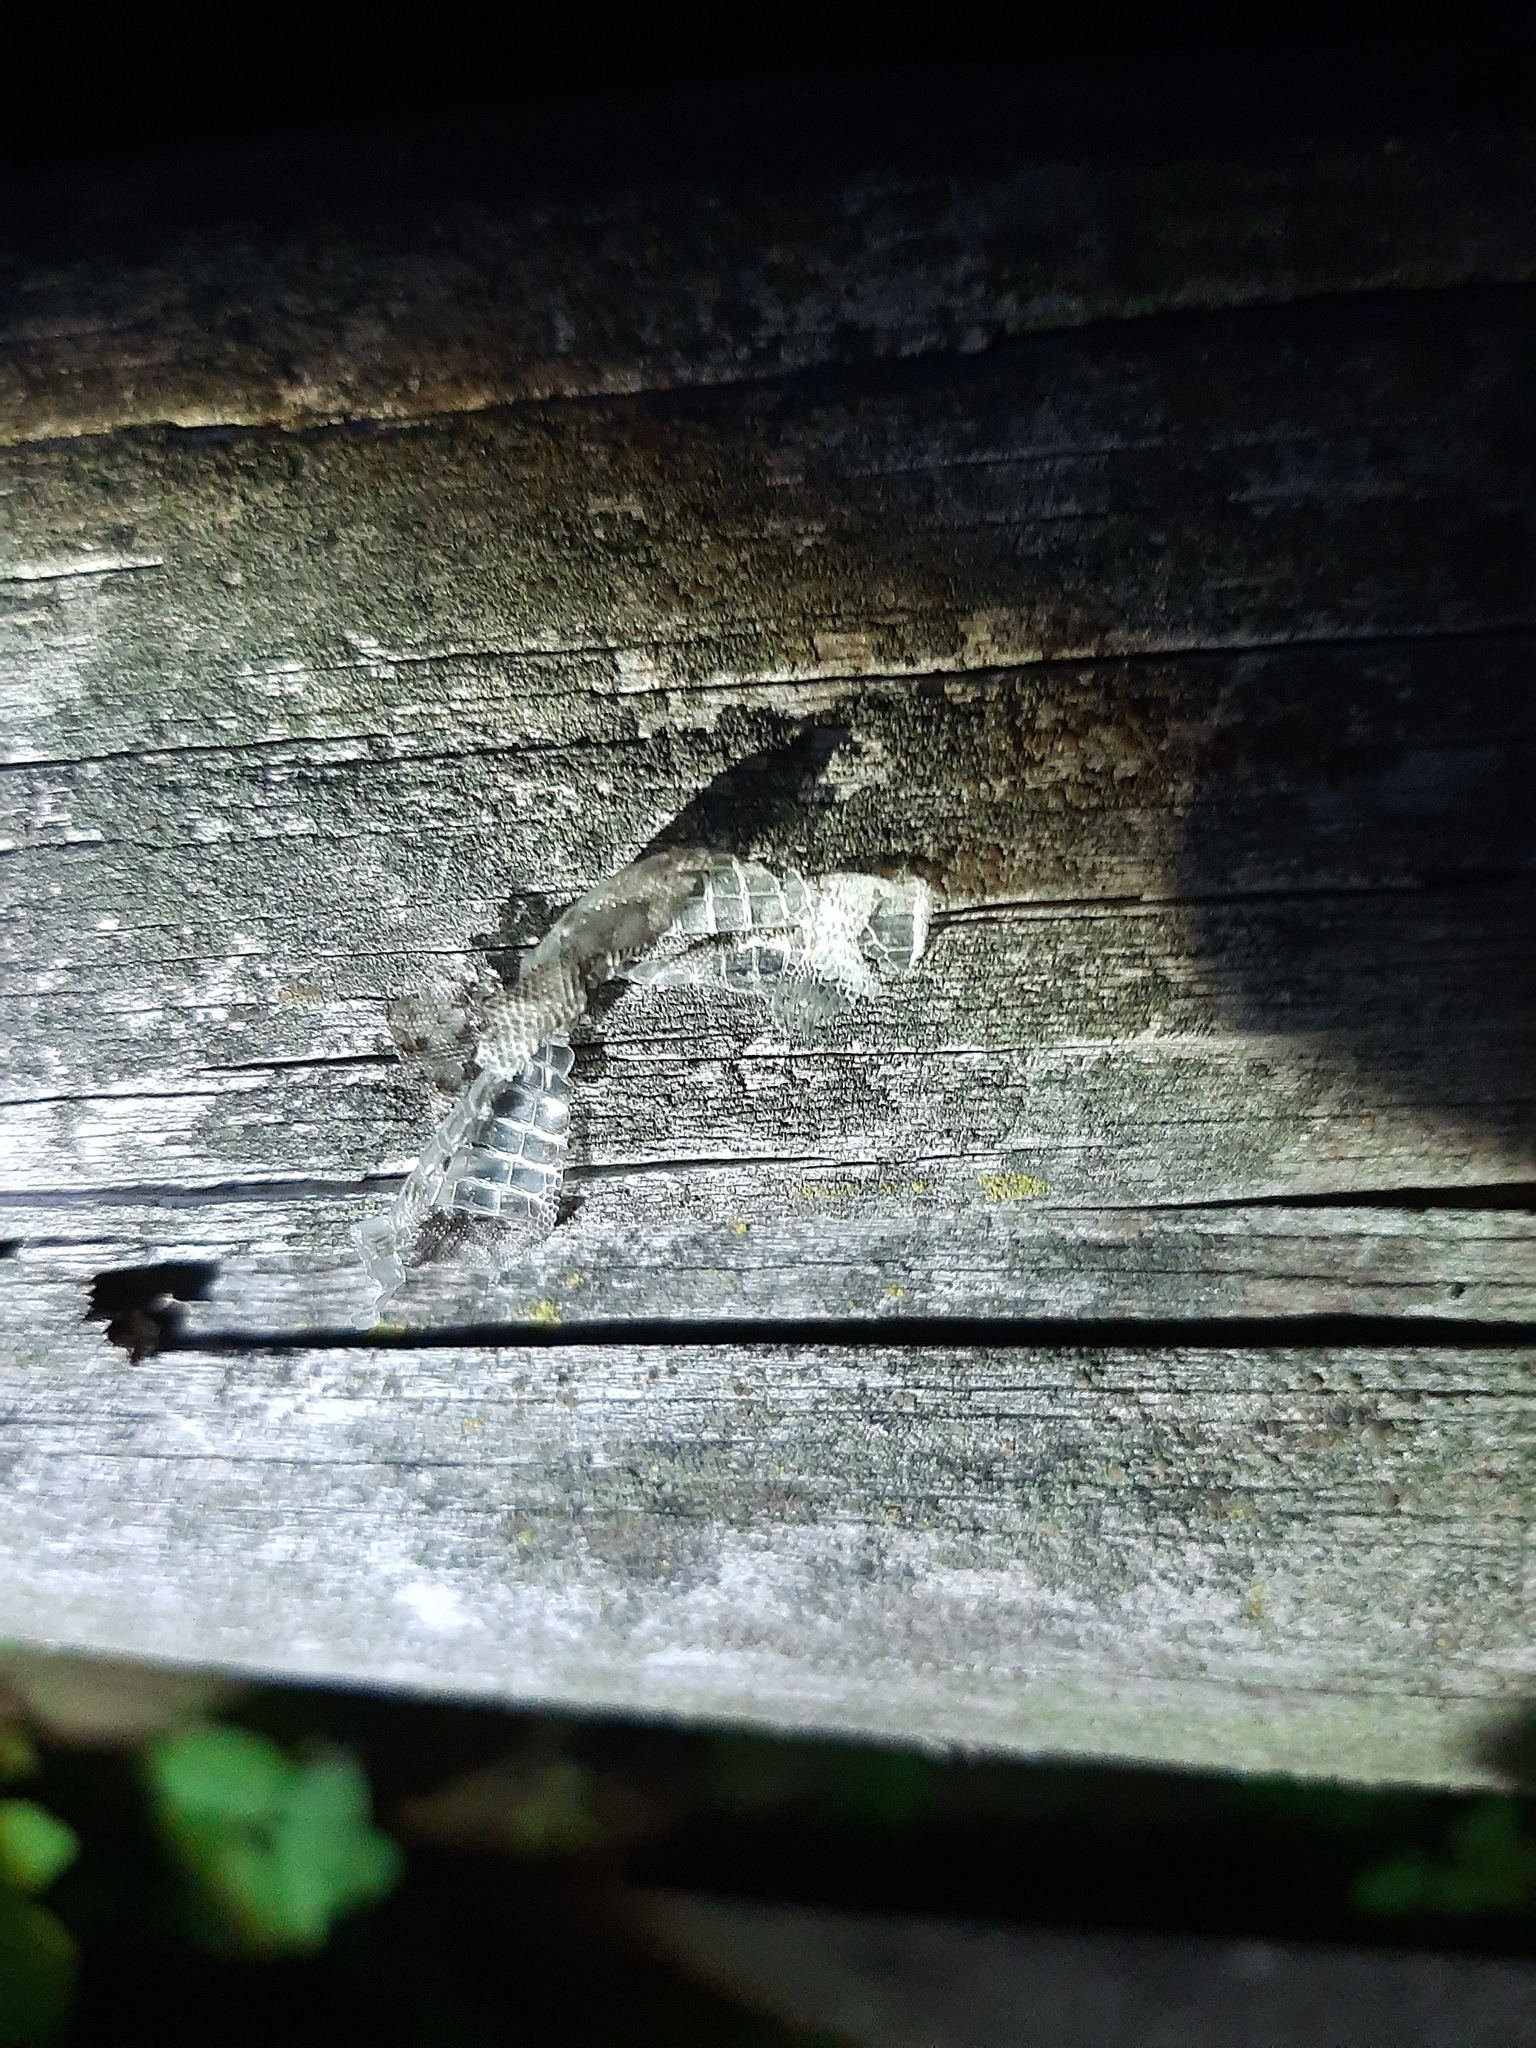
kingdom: Animalia
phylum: Chordata
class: Squamata
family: Lacertidae
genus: Podarcis
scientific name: Podarcis muralis
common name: Common wall lizard
